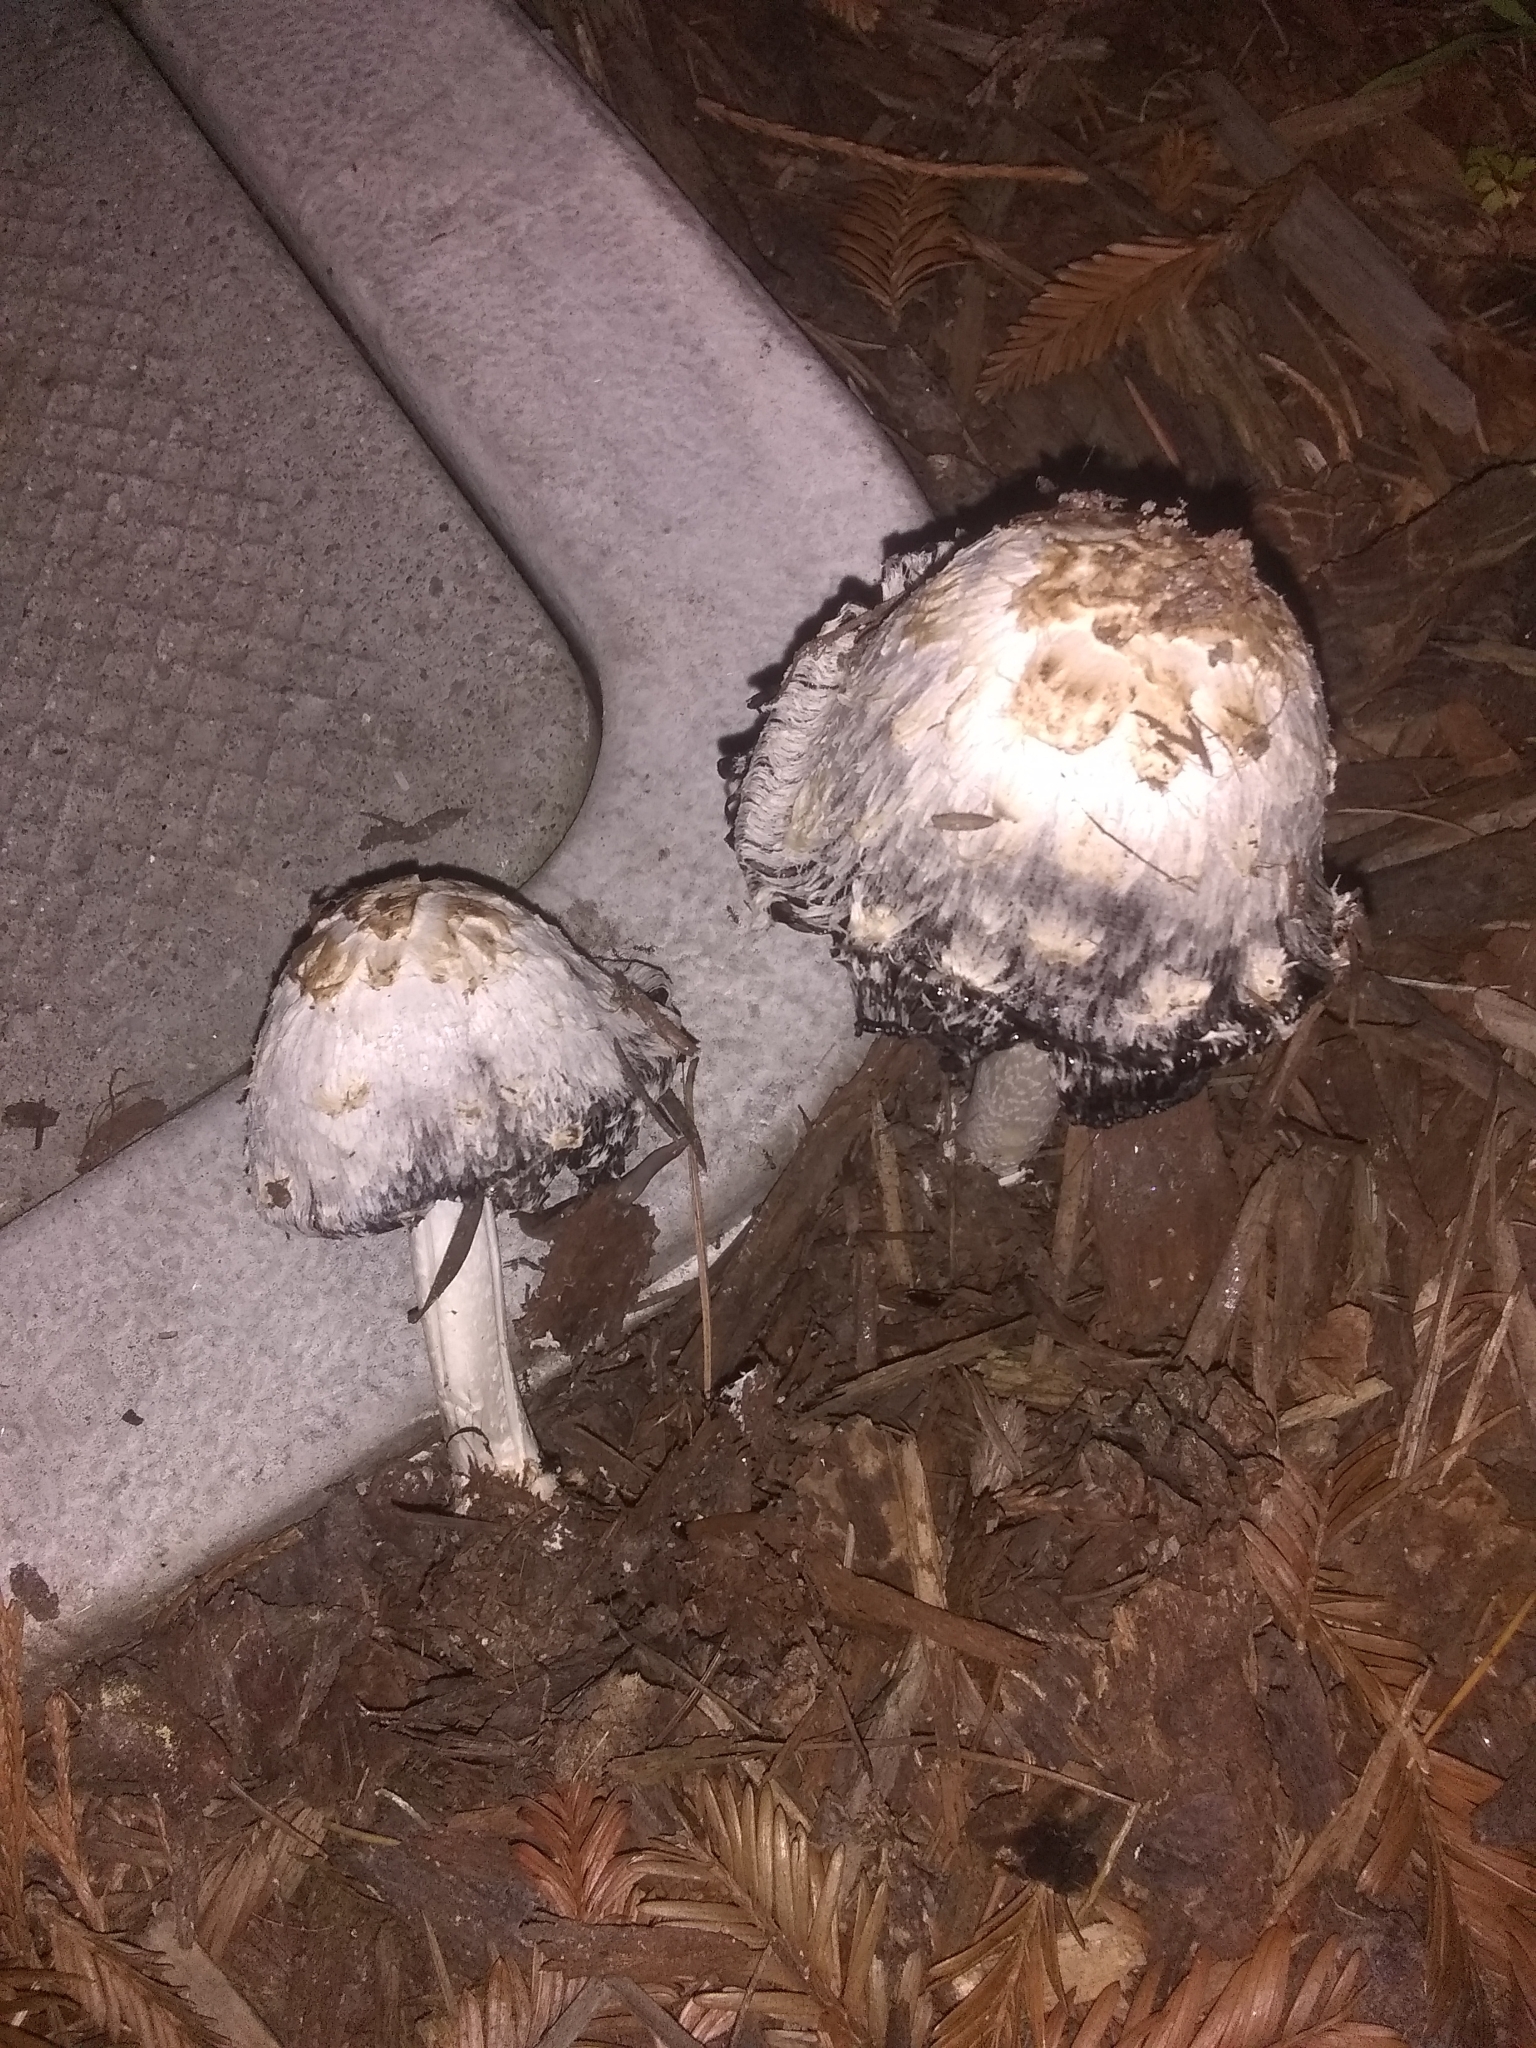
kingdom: Fungi
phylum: Basidiomycota
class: Agaricomycetes
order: Agaricales
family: Agaricaceae
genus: Coprinus
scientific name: Coprinus comatus
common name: Lawyer's wig
